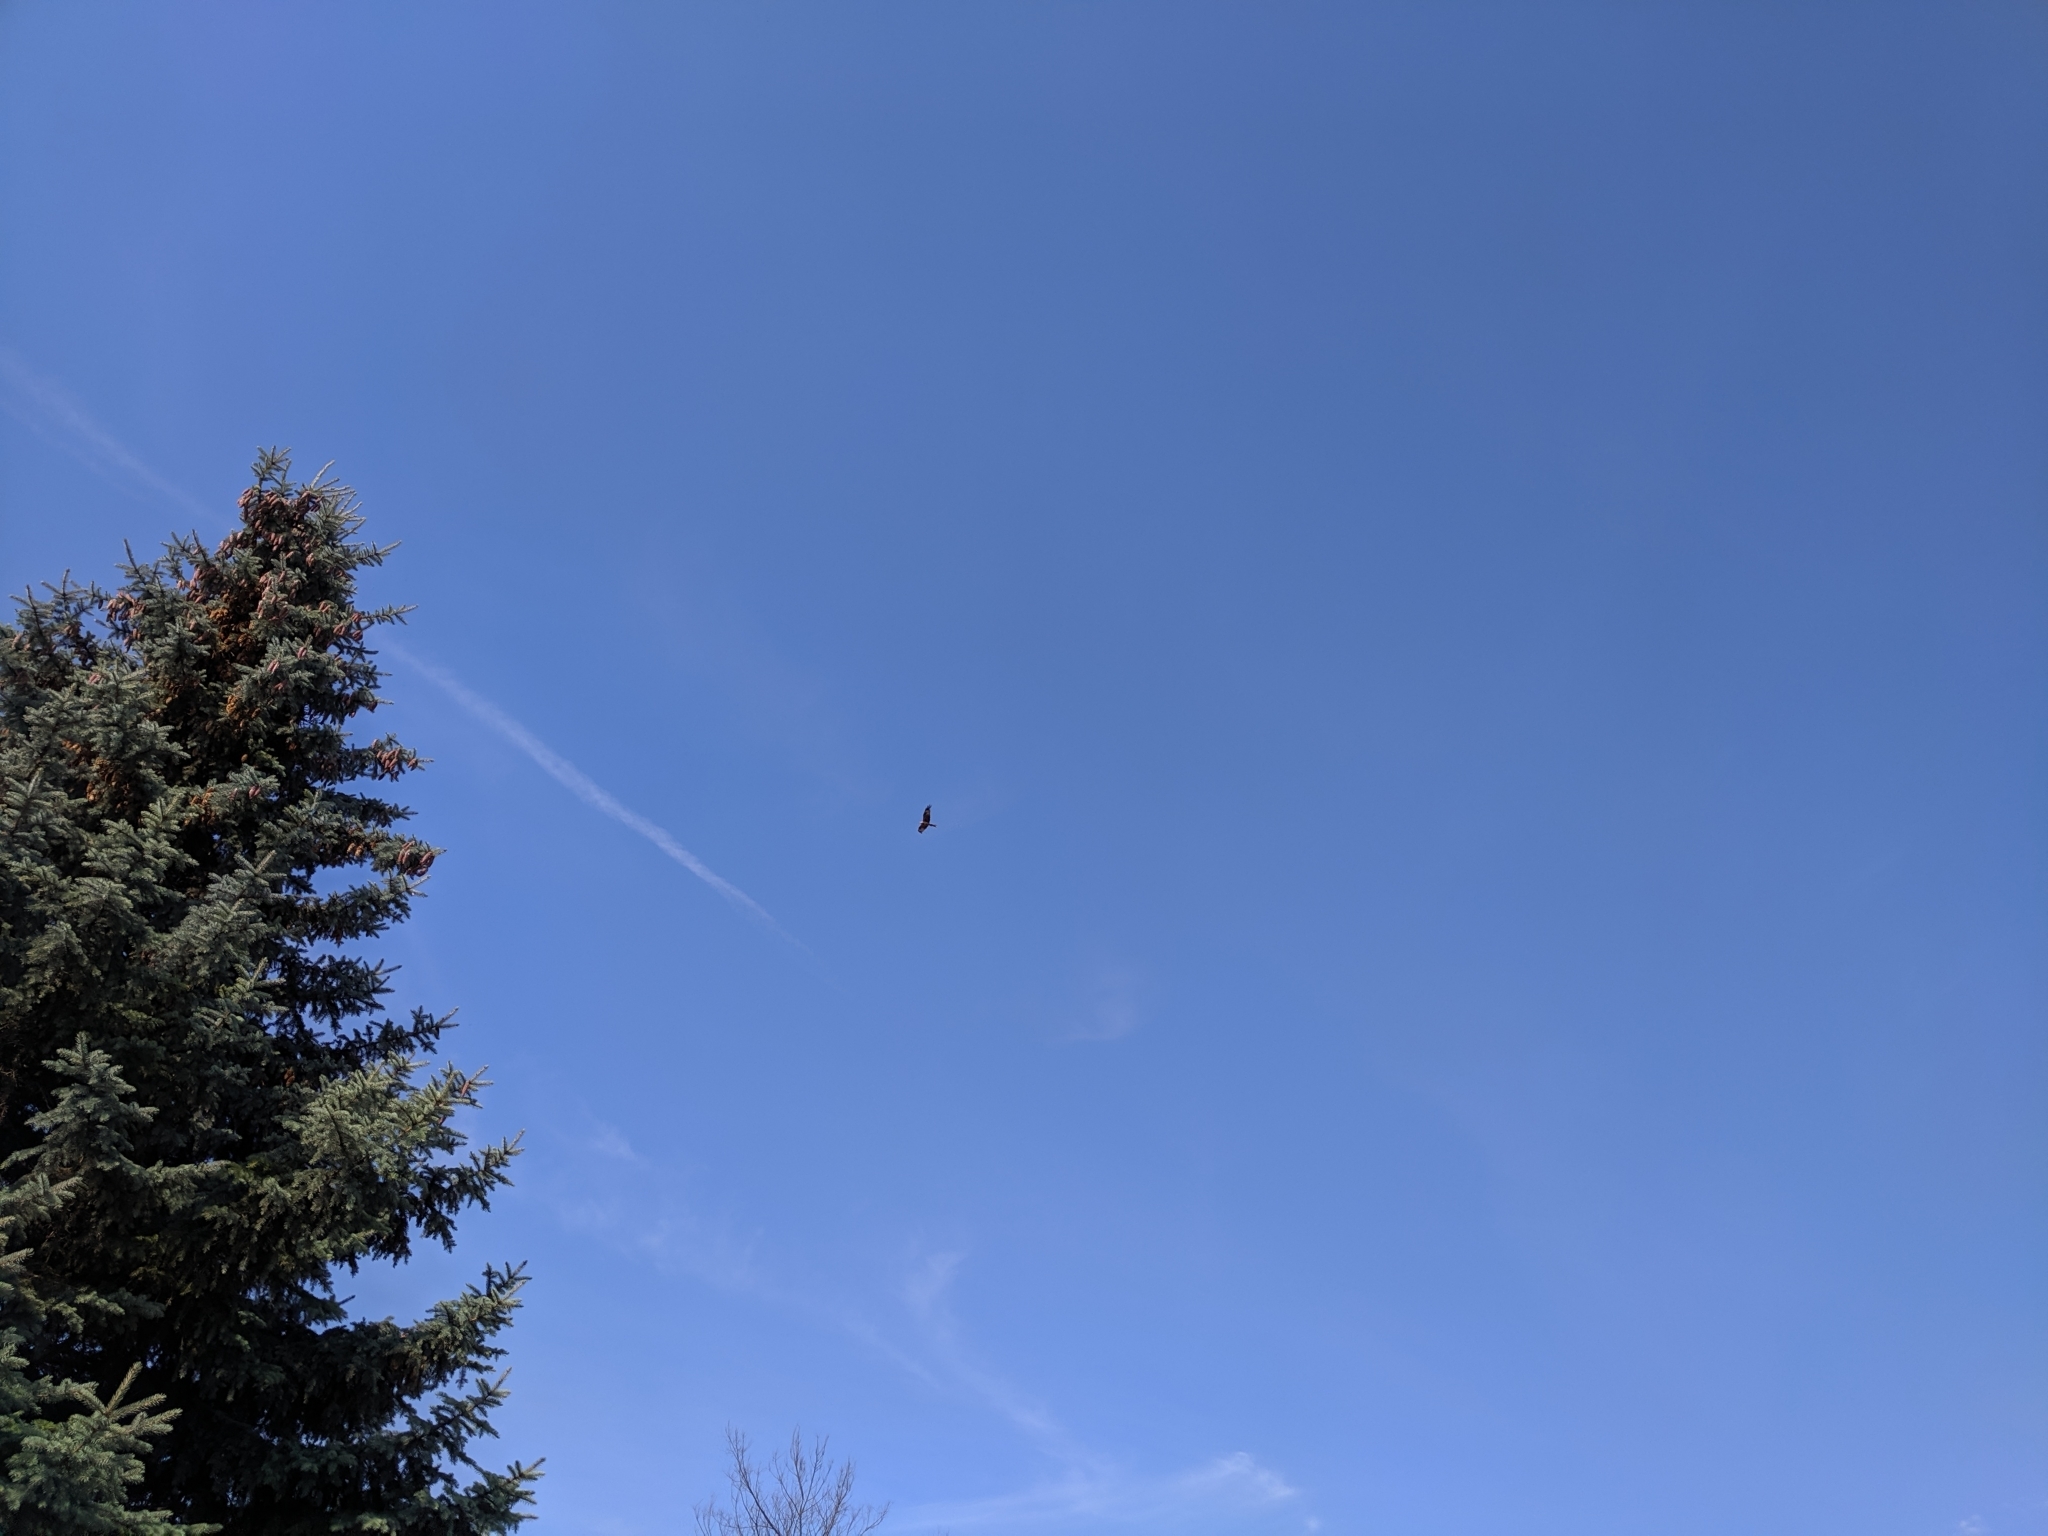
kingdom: Animalia
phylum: Chordata
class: Aves
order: Accipitriformes
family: Accipitridae
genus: Milvus
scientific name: Milvus milvus
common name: Red kite
